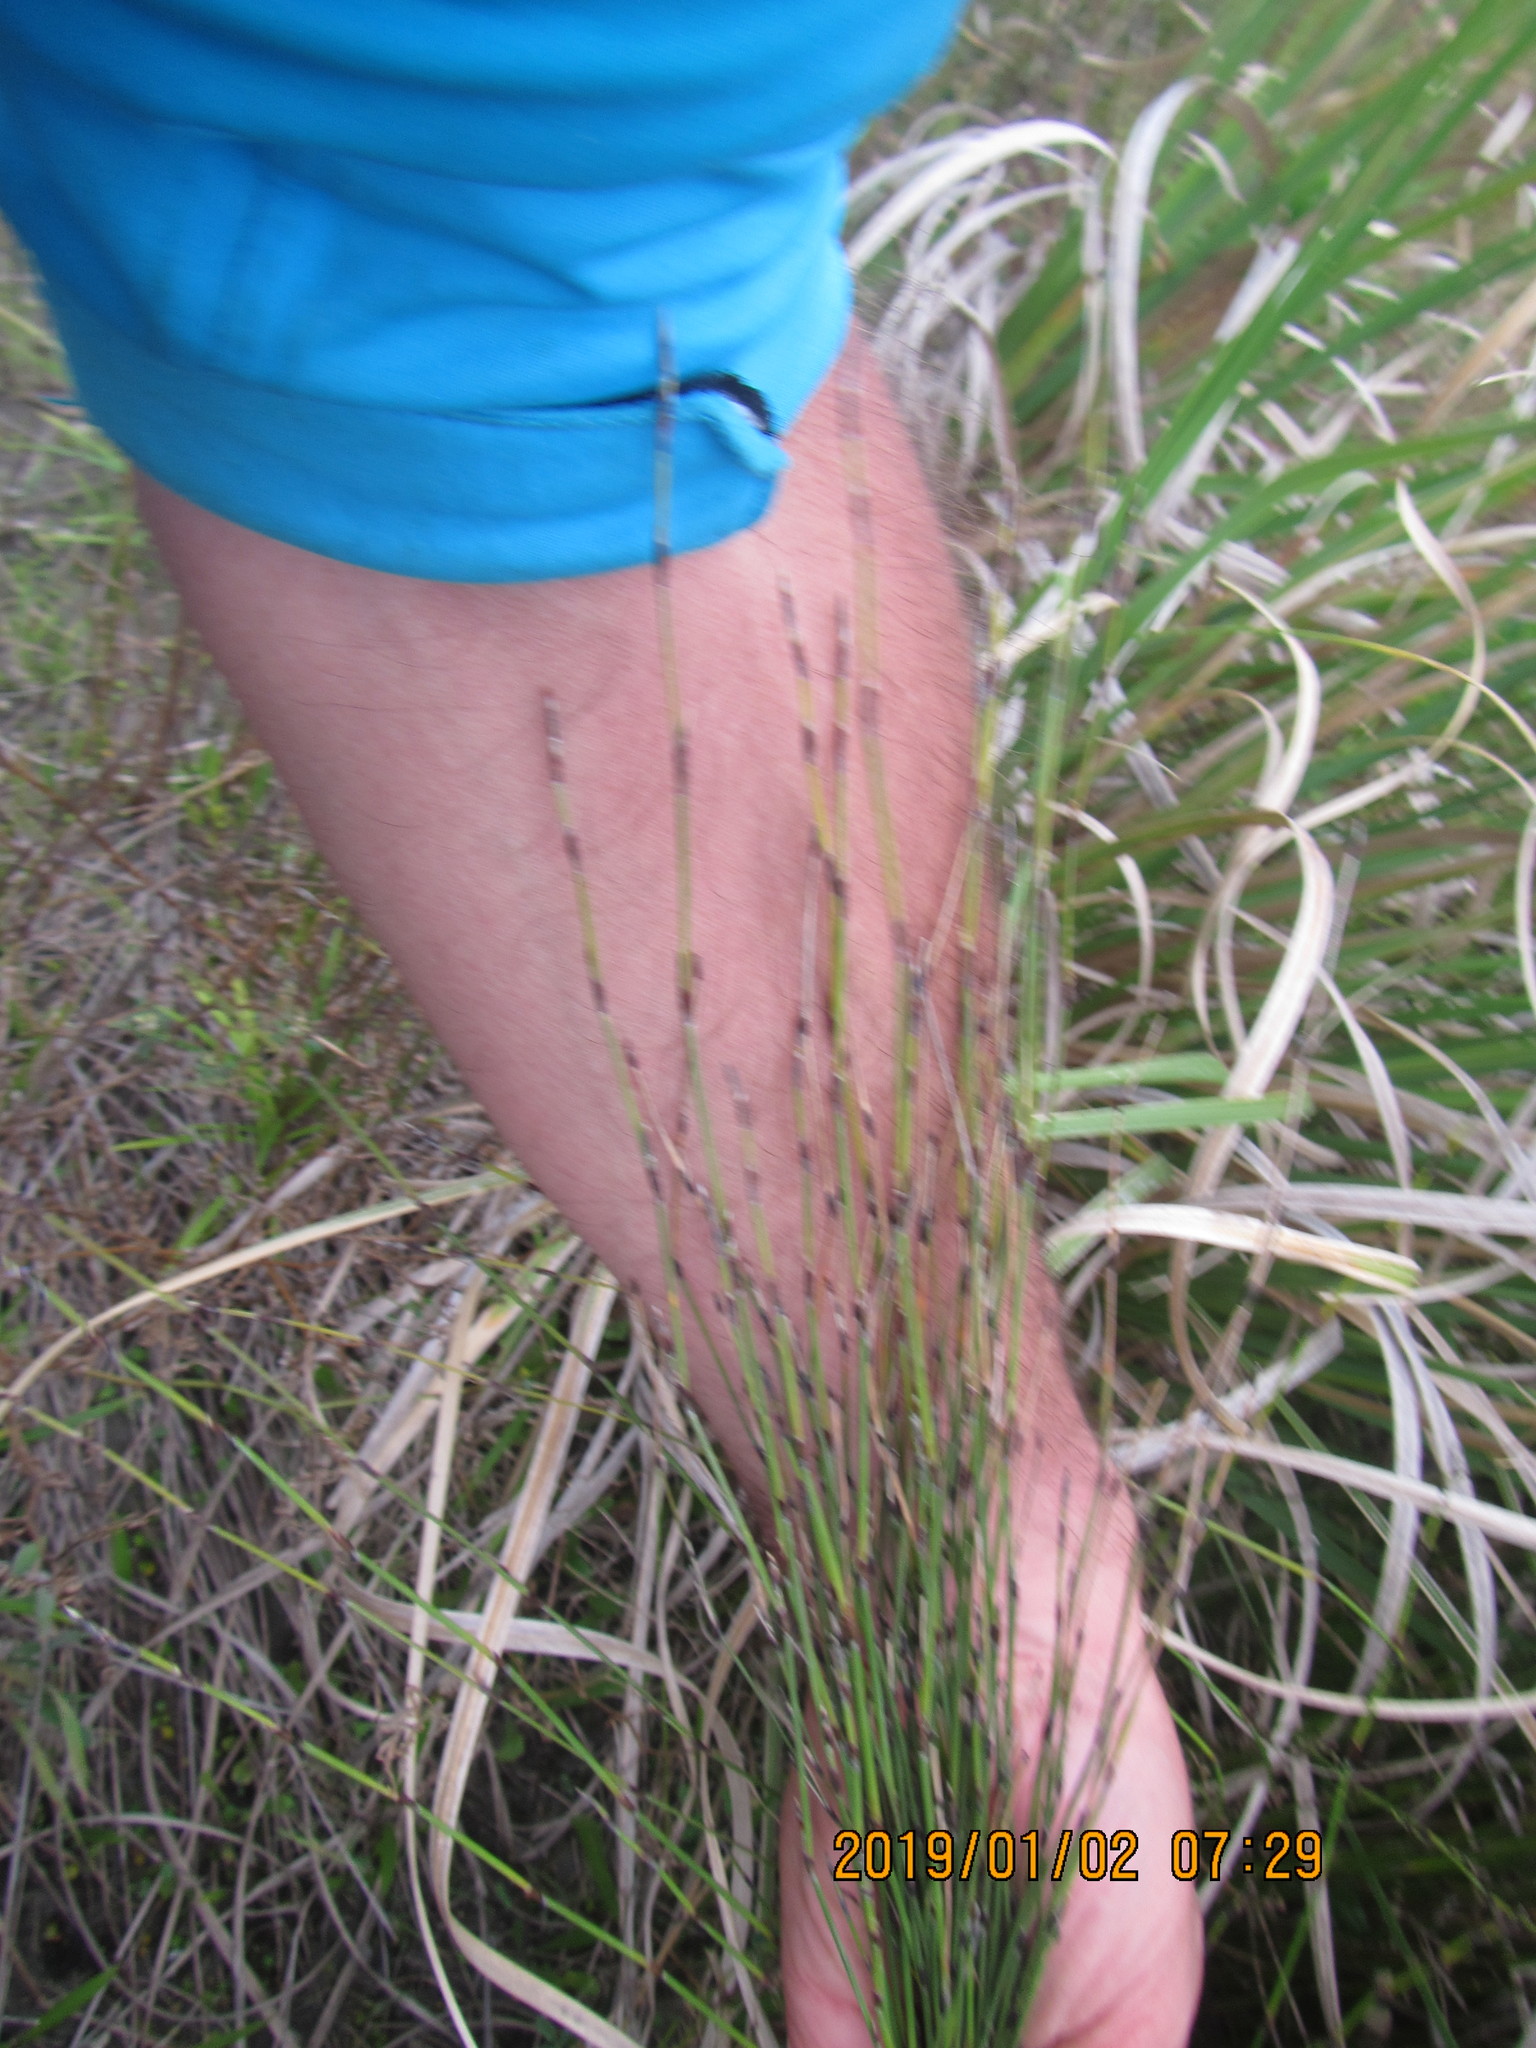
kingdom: Plantae
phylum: Tracheophyta
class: Liliopsida
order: Poales
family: Restionaceae
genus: Apodasmia
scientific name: Apodasmia similis
